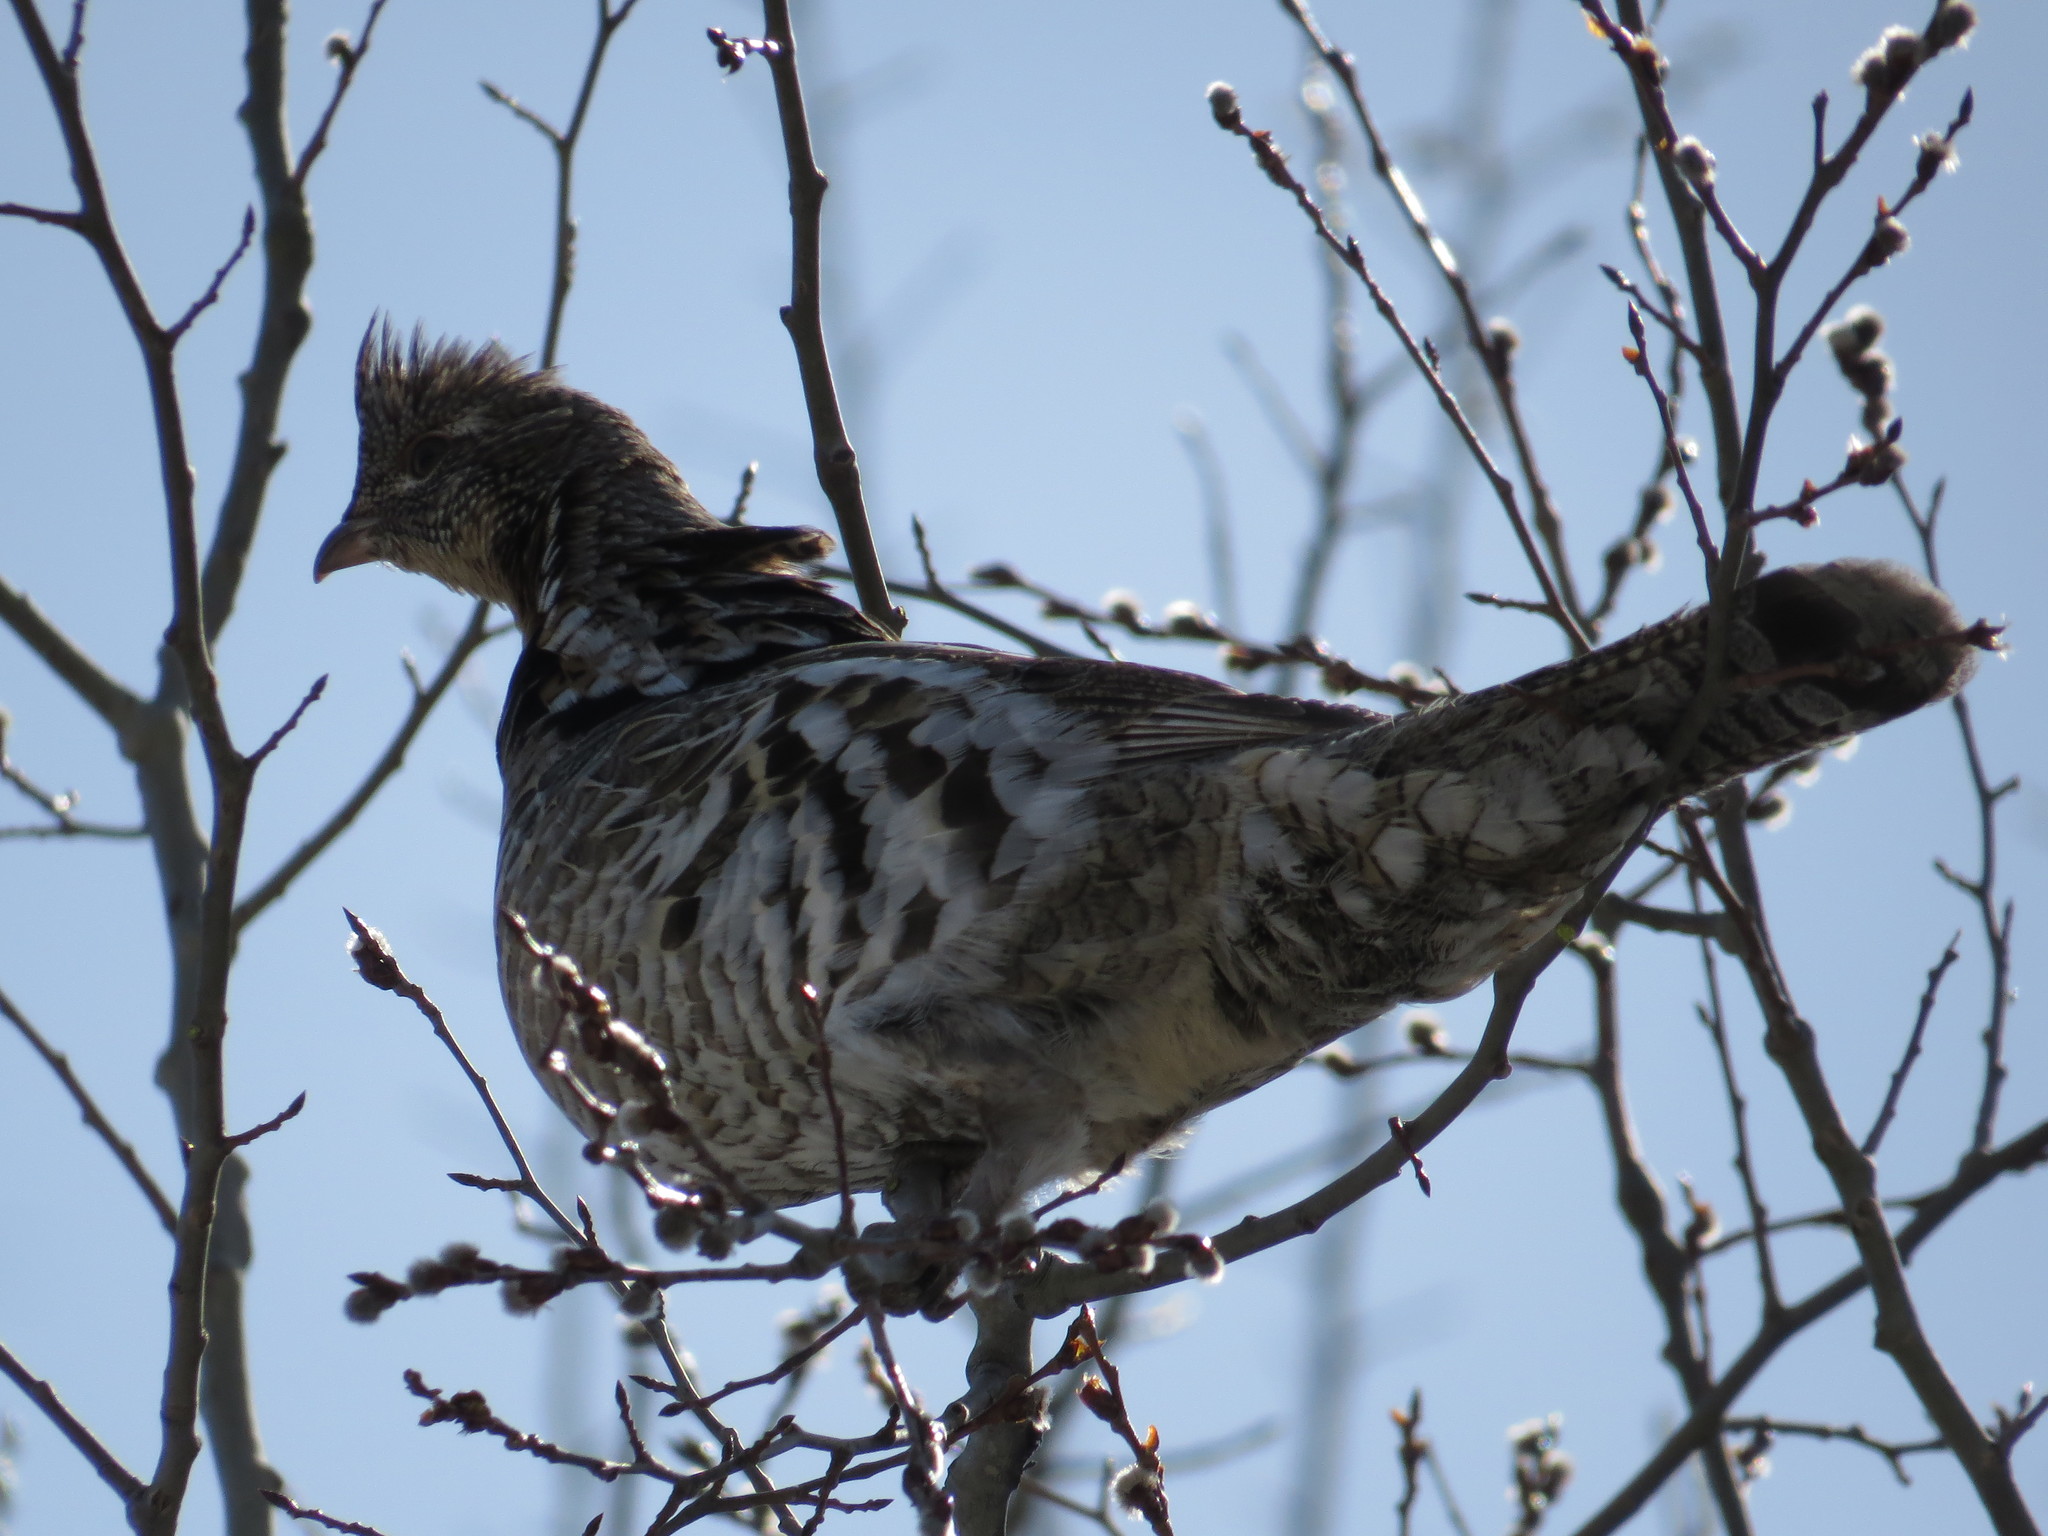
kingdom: Animalia
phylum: Chordata
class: Aves
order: Galliformes
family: Phasianidae
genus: Bonasa
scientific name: Bonasa umbellus
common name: Ruffed grouse
